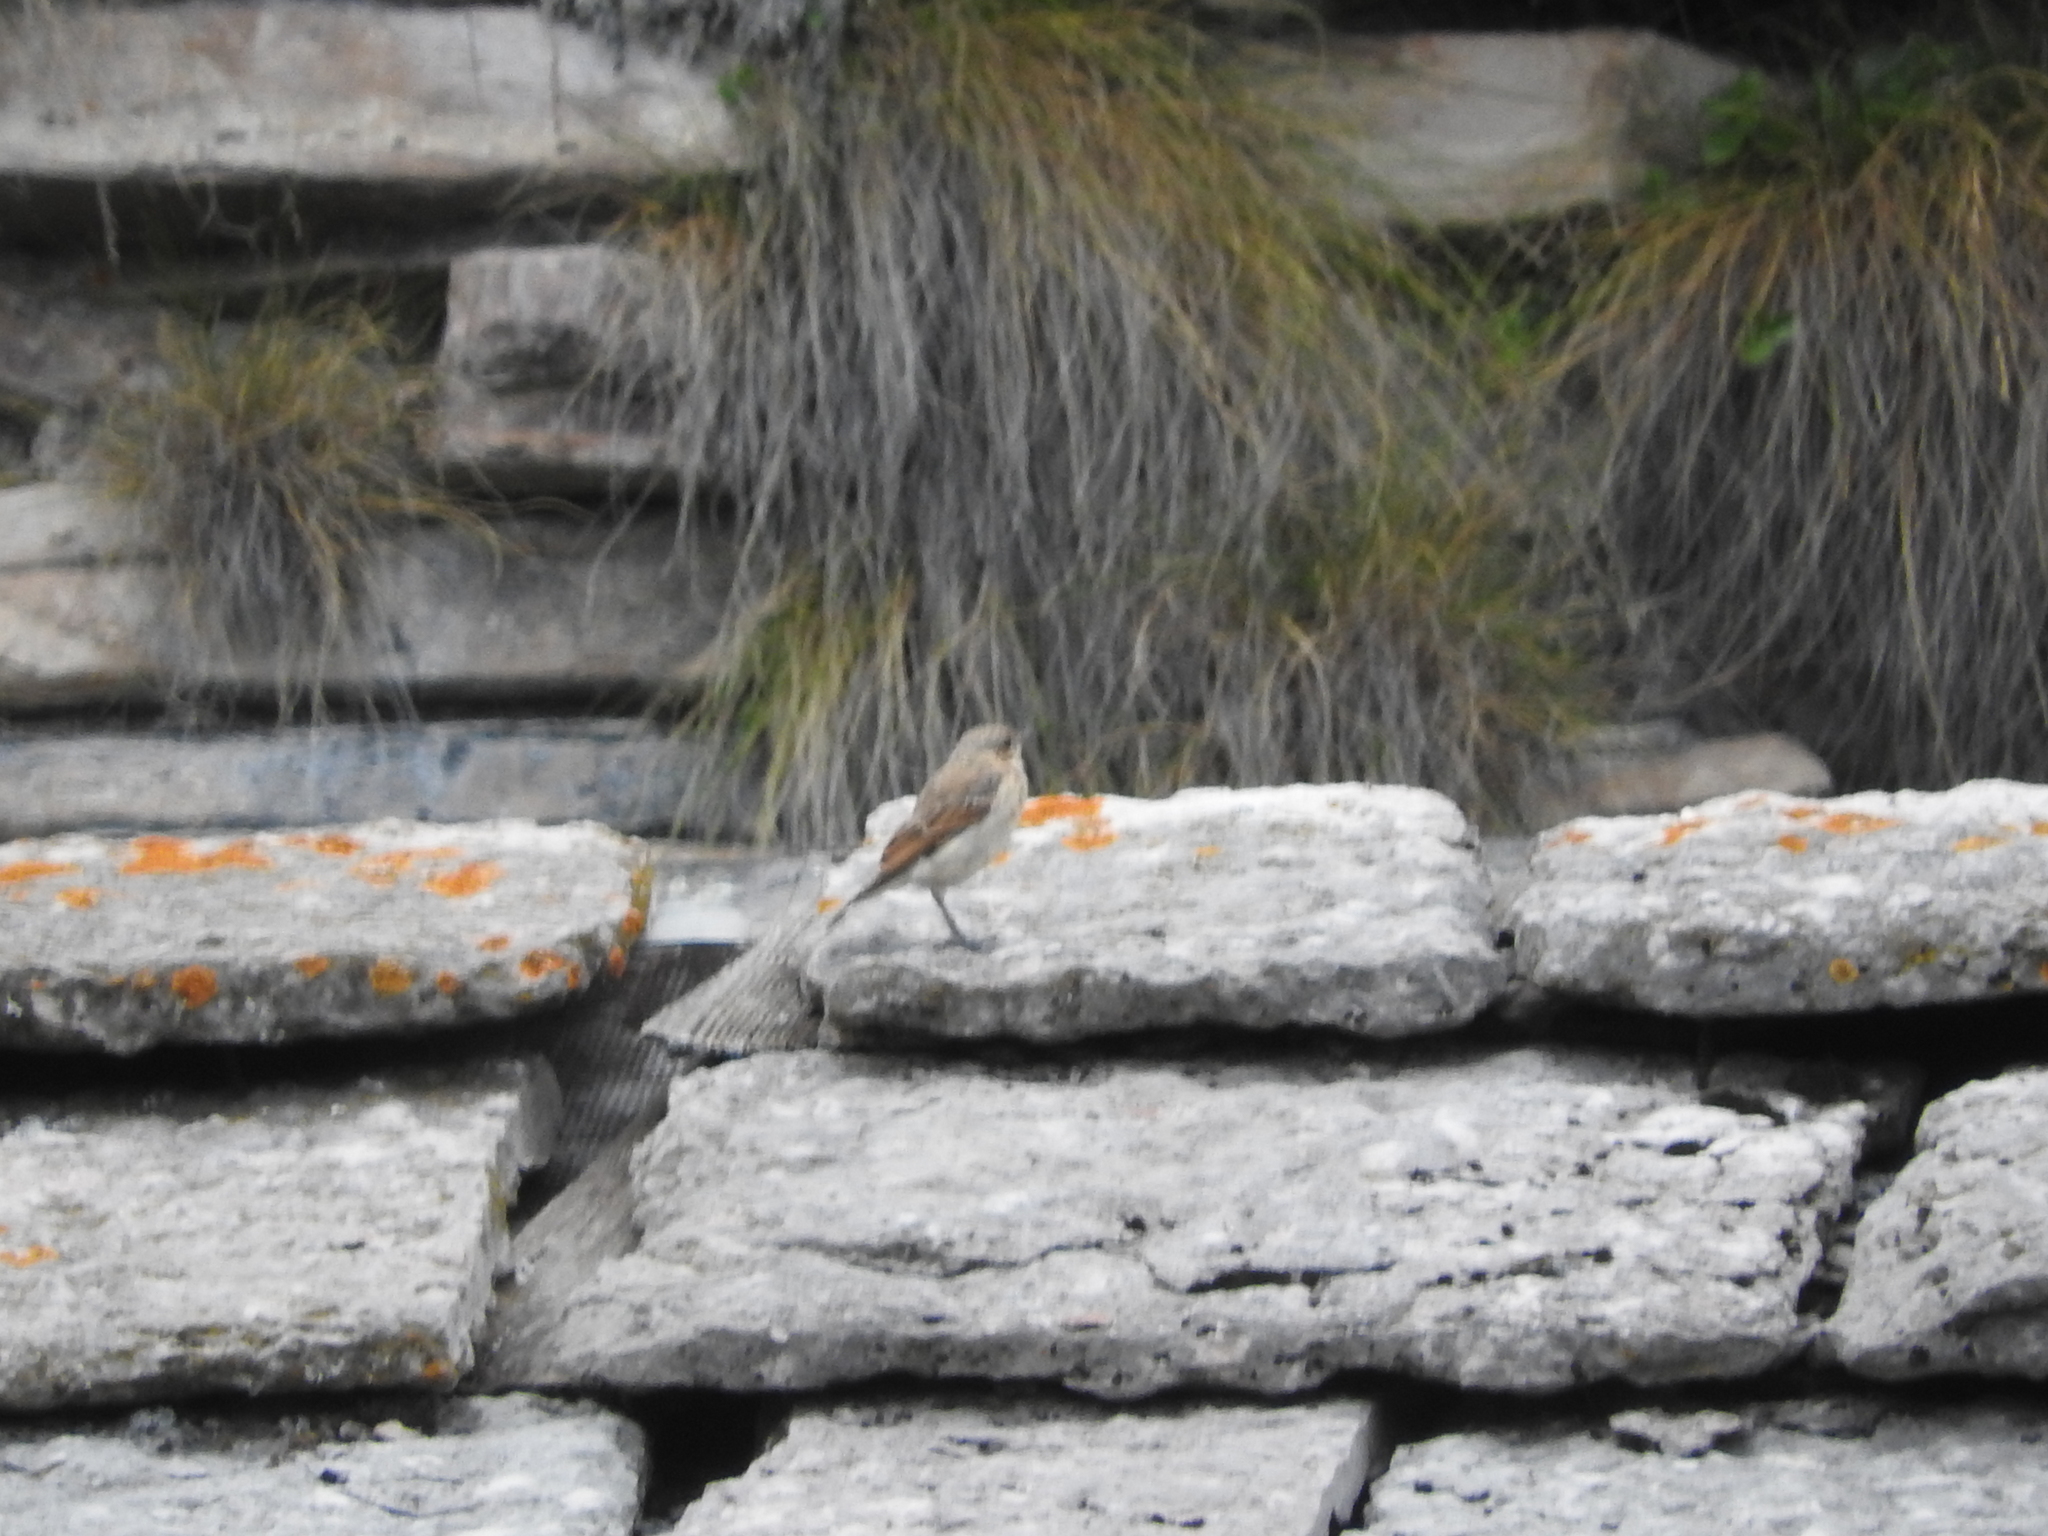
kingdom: Animalia
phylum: Chordata
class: Aves
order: Passeriformes
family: Muscicapidae
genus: Oenanthe
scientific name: Oenanthe oenanthe
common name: Northern wheatear
